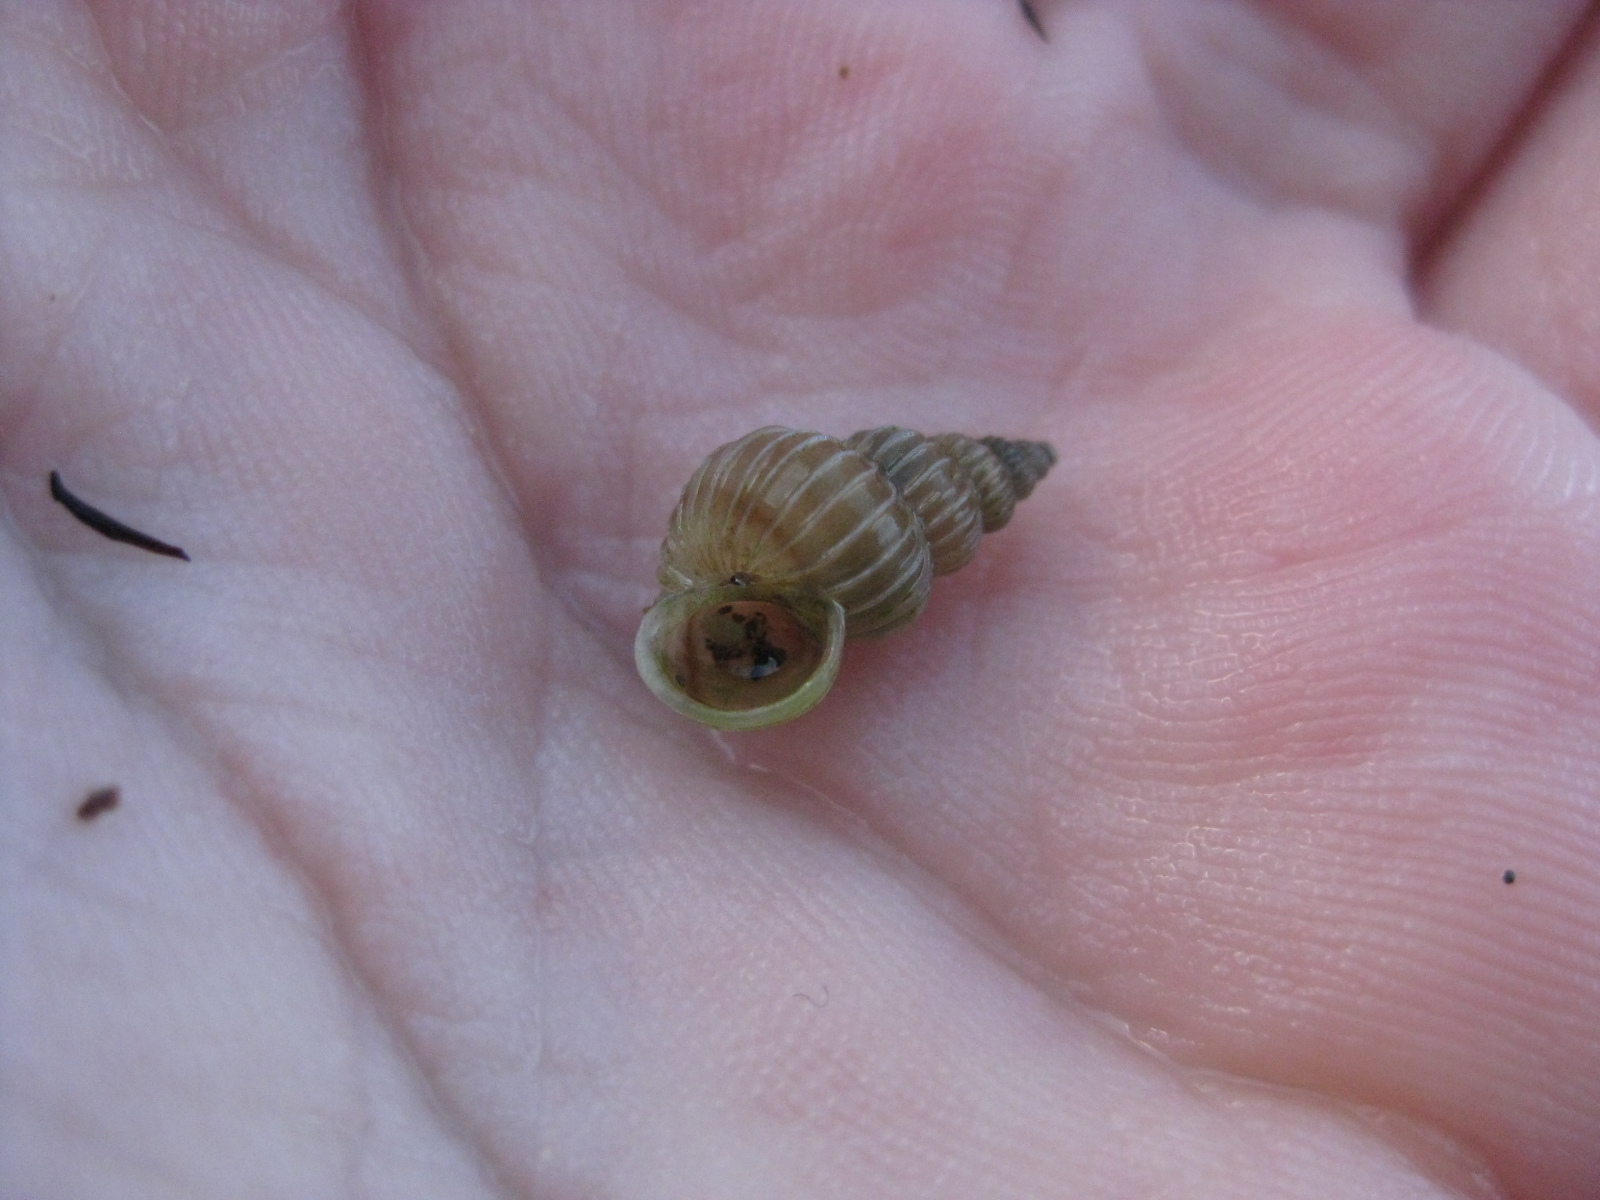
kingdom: Animalia
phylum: Mollusca
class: Gastropoda
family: Epitoniidae
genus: Epitonium
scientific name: Epitonium tenellum
